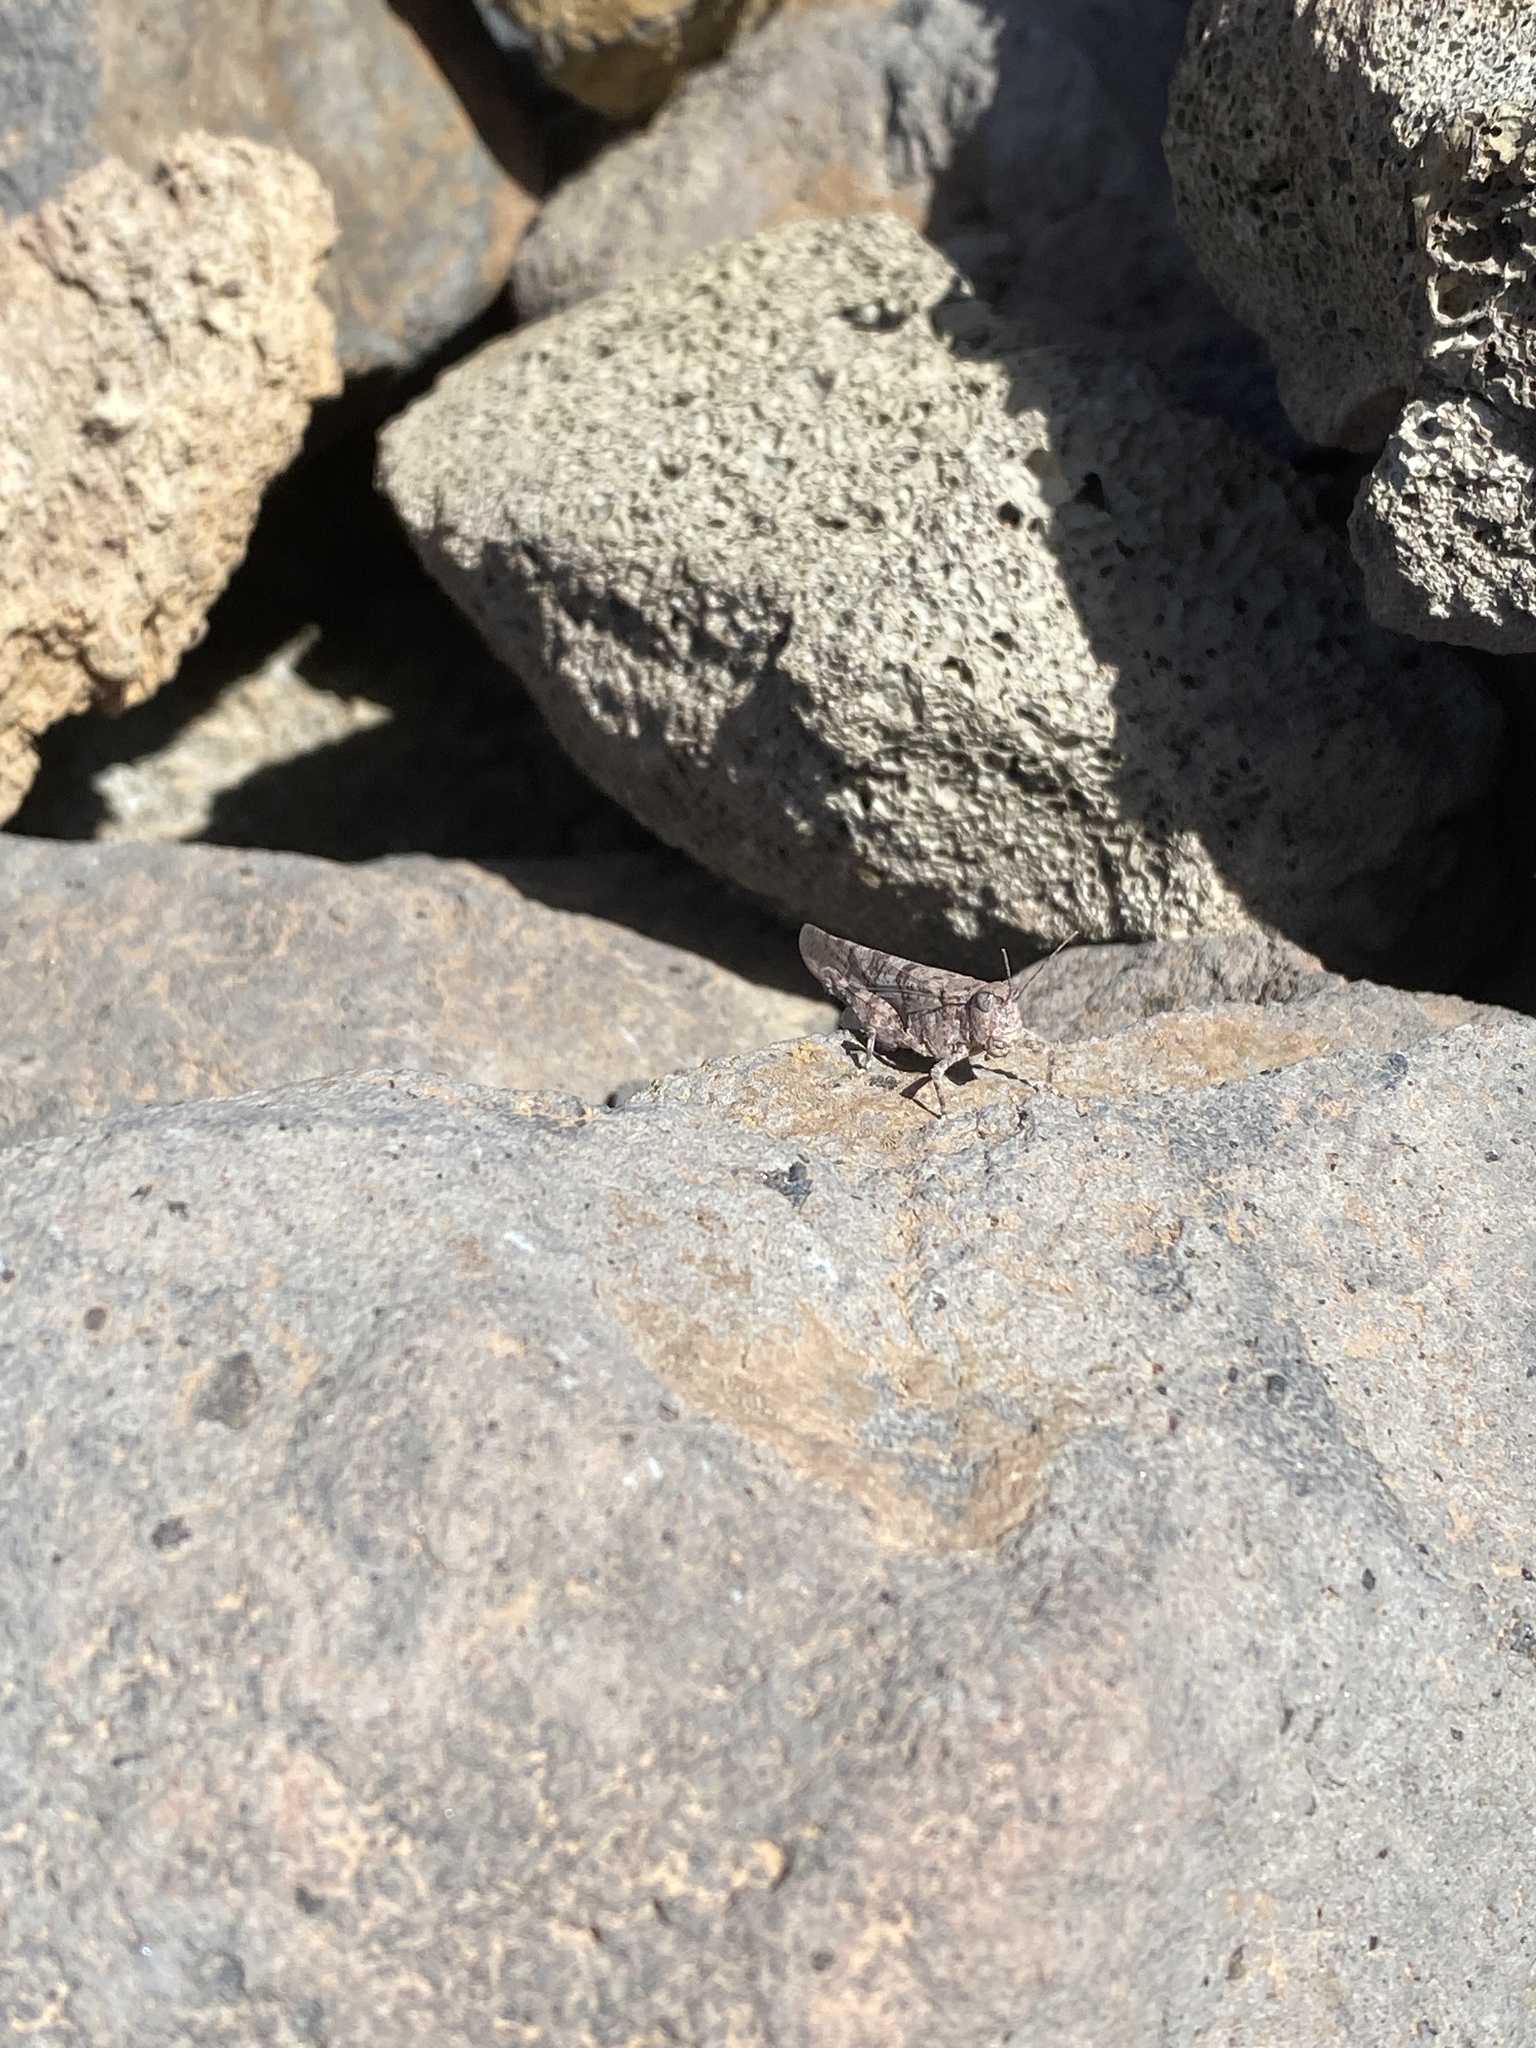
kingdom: Animalia
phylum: Arthropoda
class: Insecta
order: Orthoptera
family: Acrididae
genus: Sphingonotus
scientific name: Sphingonotus rubescens
